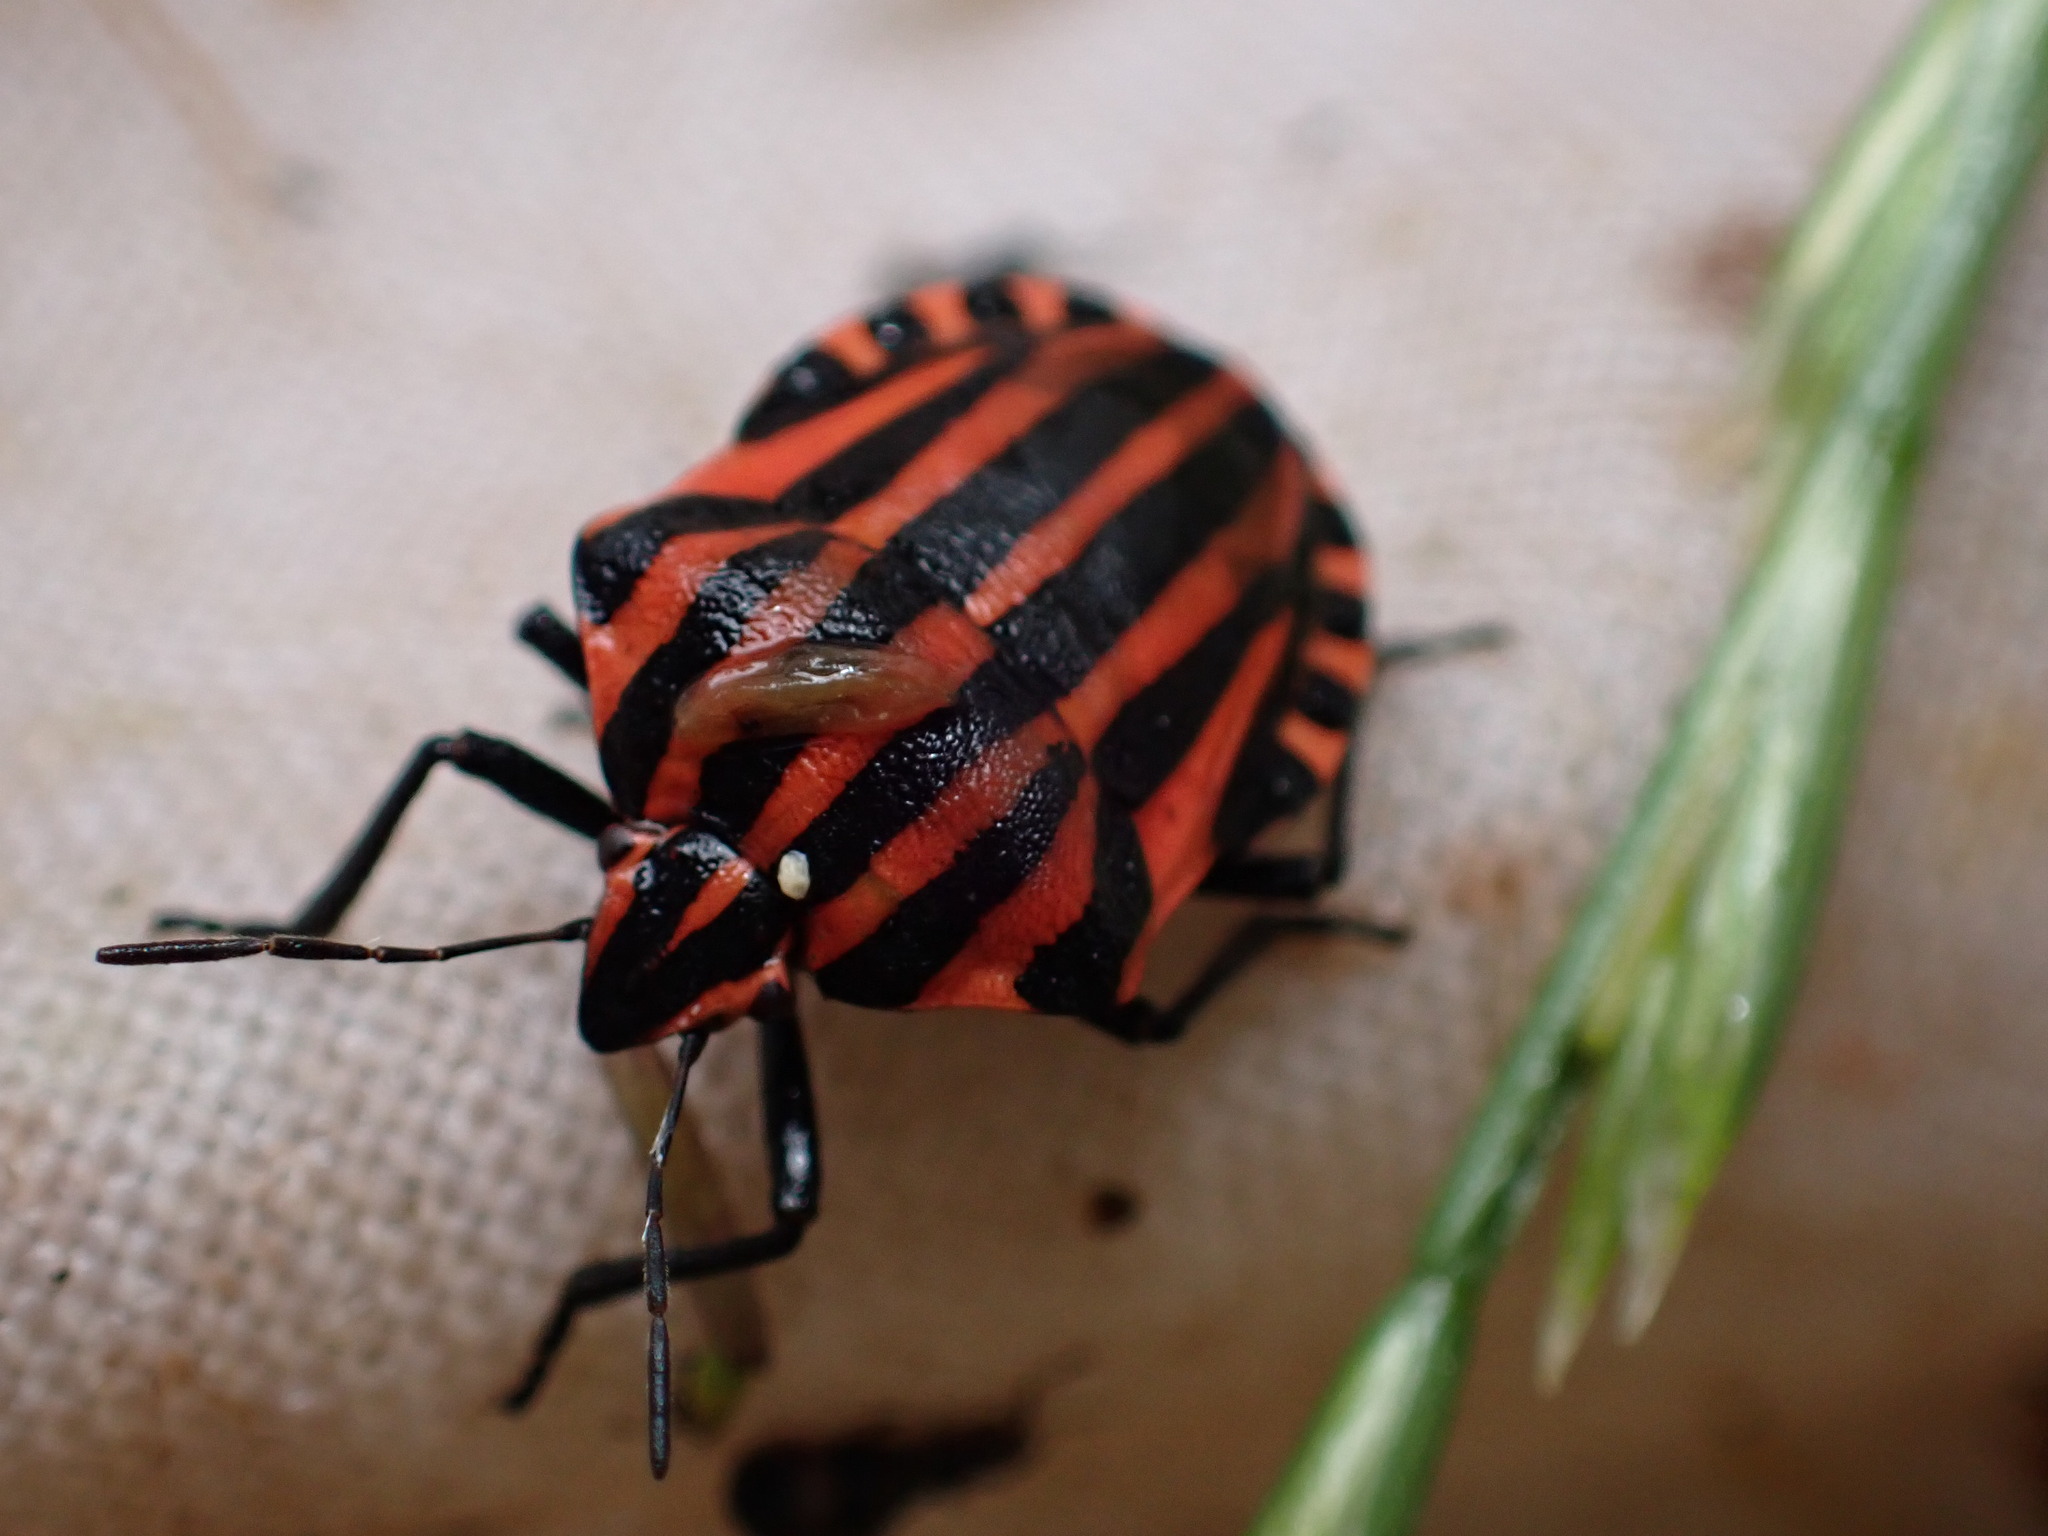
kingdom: Animalia
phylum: Arthropoda
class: Insecta
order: Hemiptera
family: Pentatomidae
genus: Graphosoma
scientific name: Graphosoma italicum
